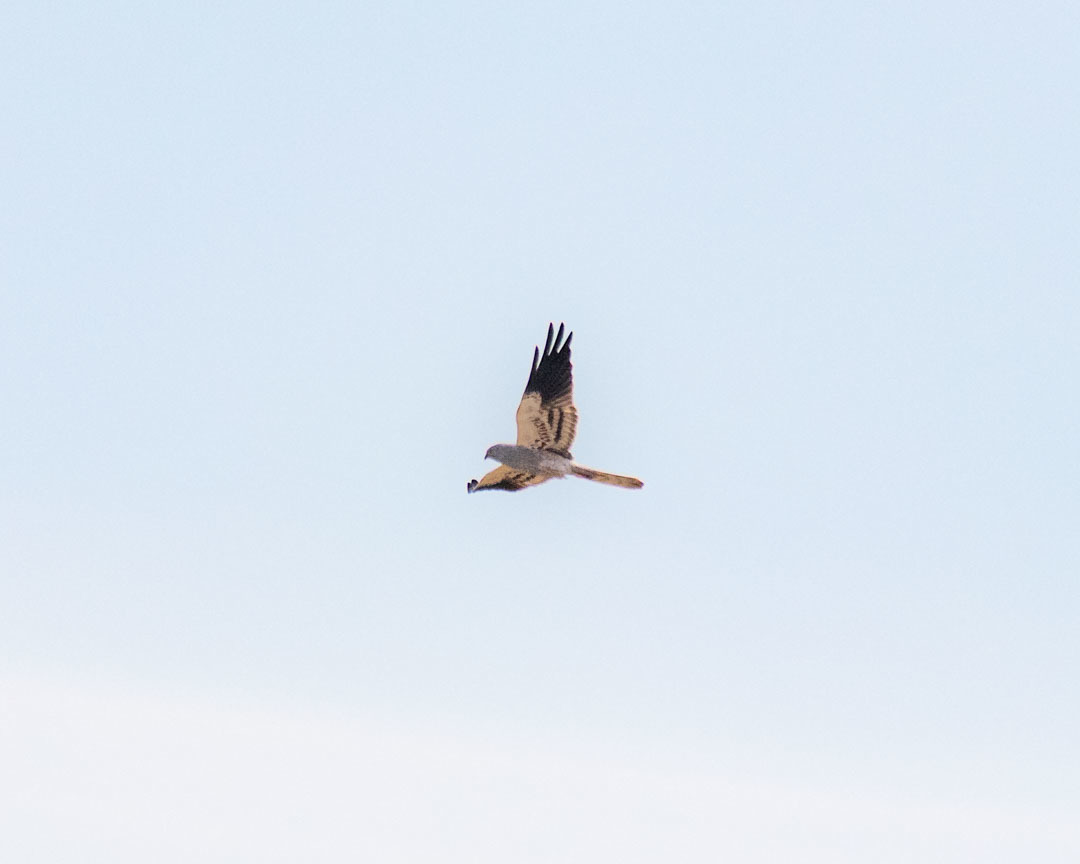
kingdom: Animalia
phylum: Chordata
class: Aves
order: Accipitriformes
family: Accipitridae
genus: Circus
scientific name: Circus pygargus
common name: Montagu's harrier
